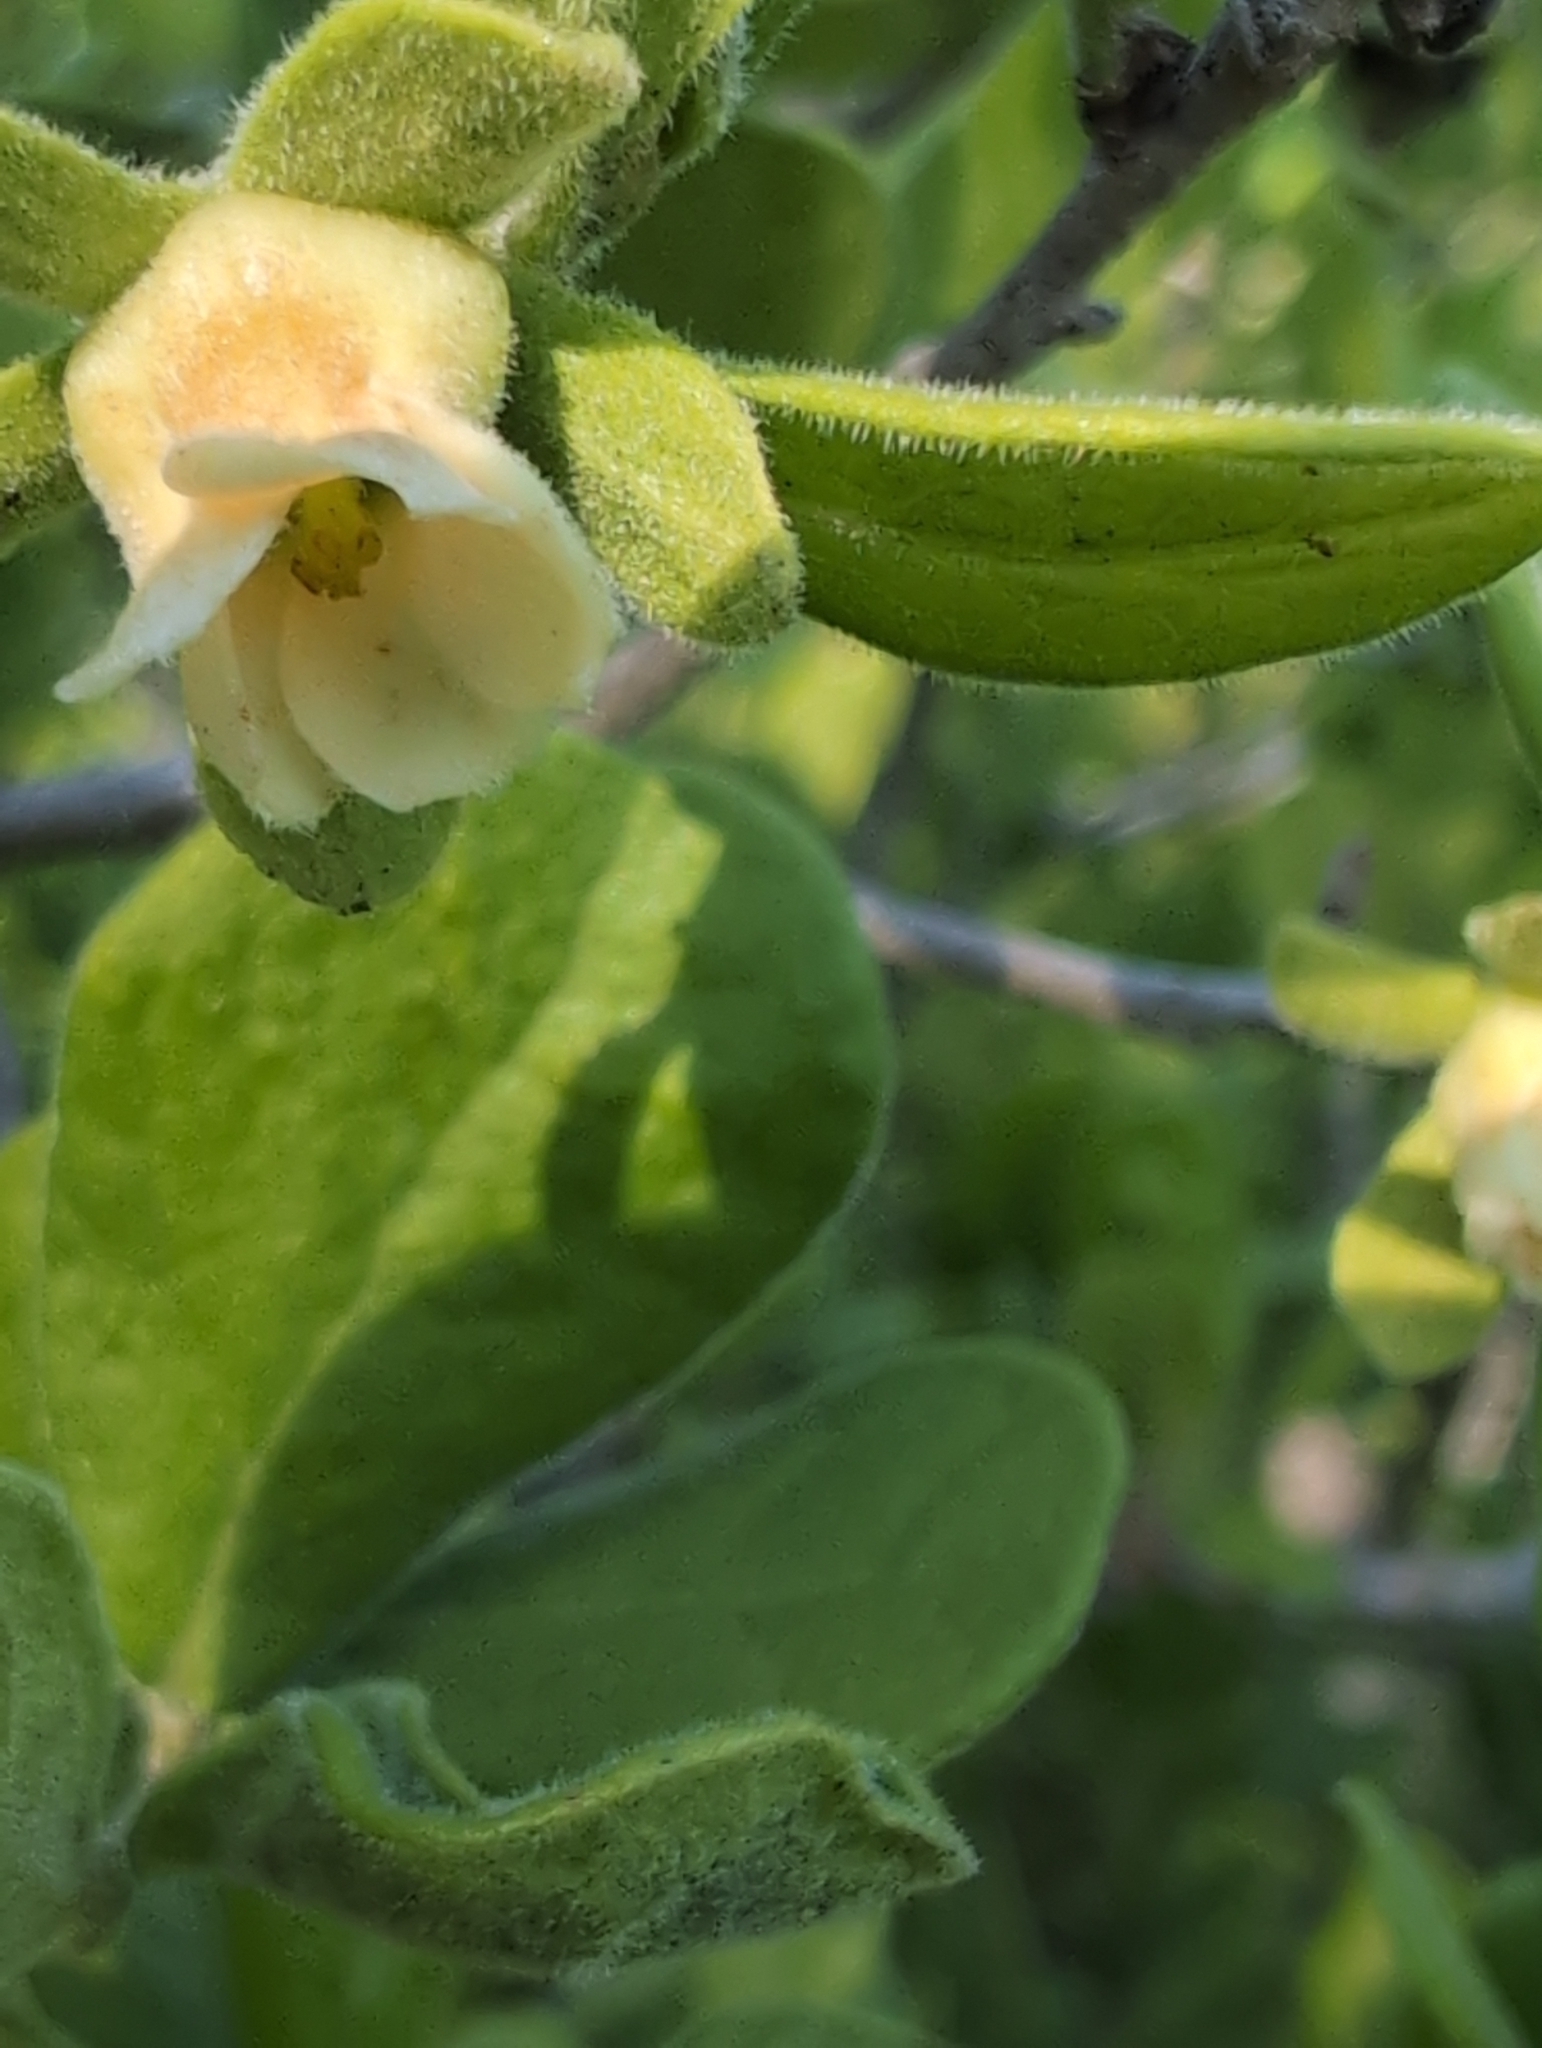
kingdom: Plantae
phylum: Tracheophyta
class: Magnoliopsida
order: Ericales
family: Ebenaceae
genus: Diospyros
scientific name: Diospyros texana
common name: Texas persimmon
